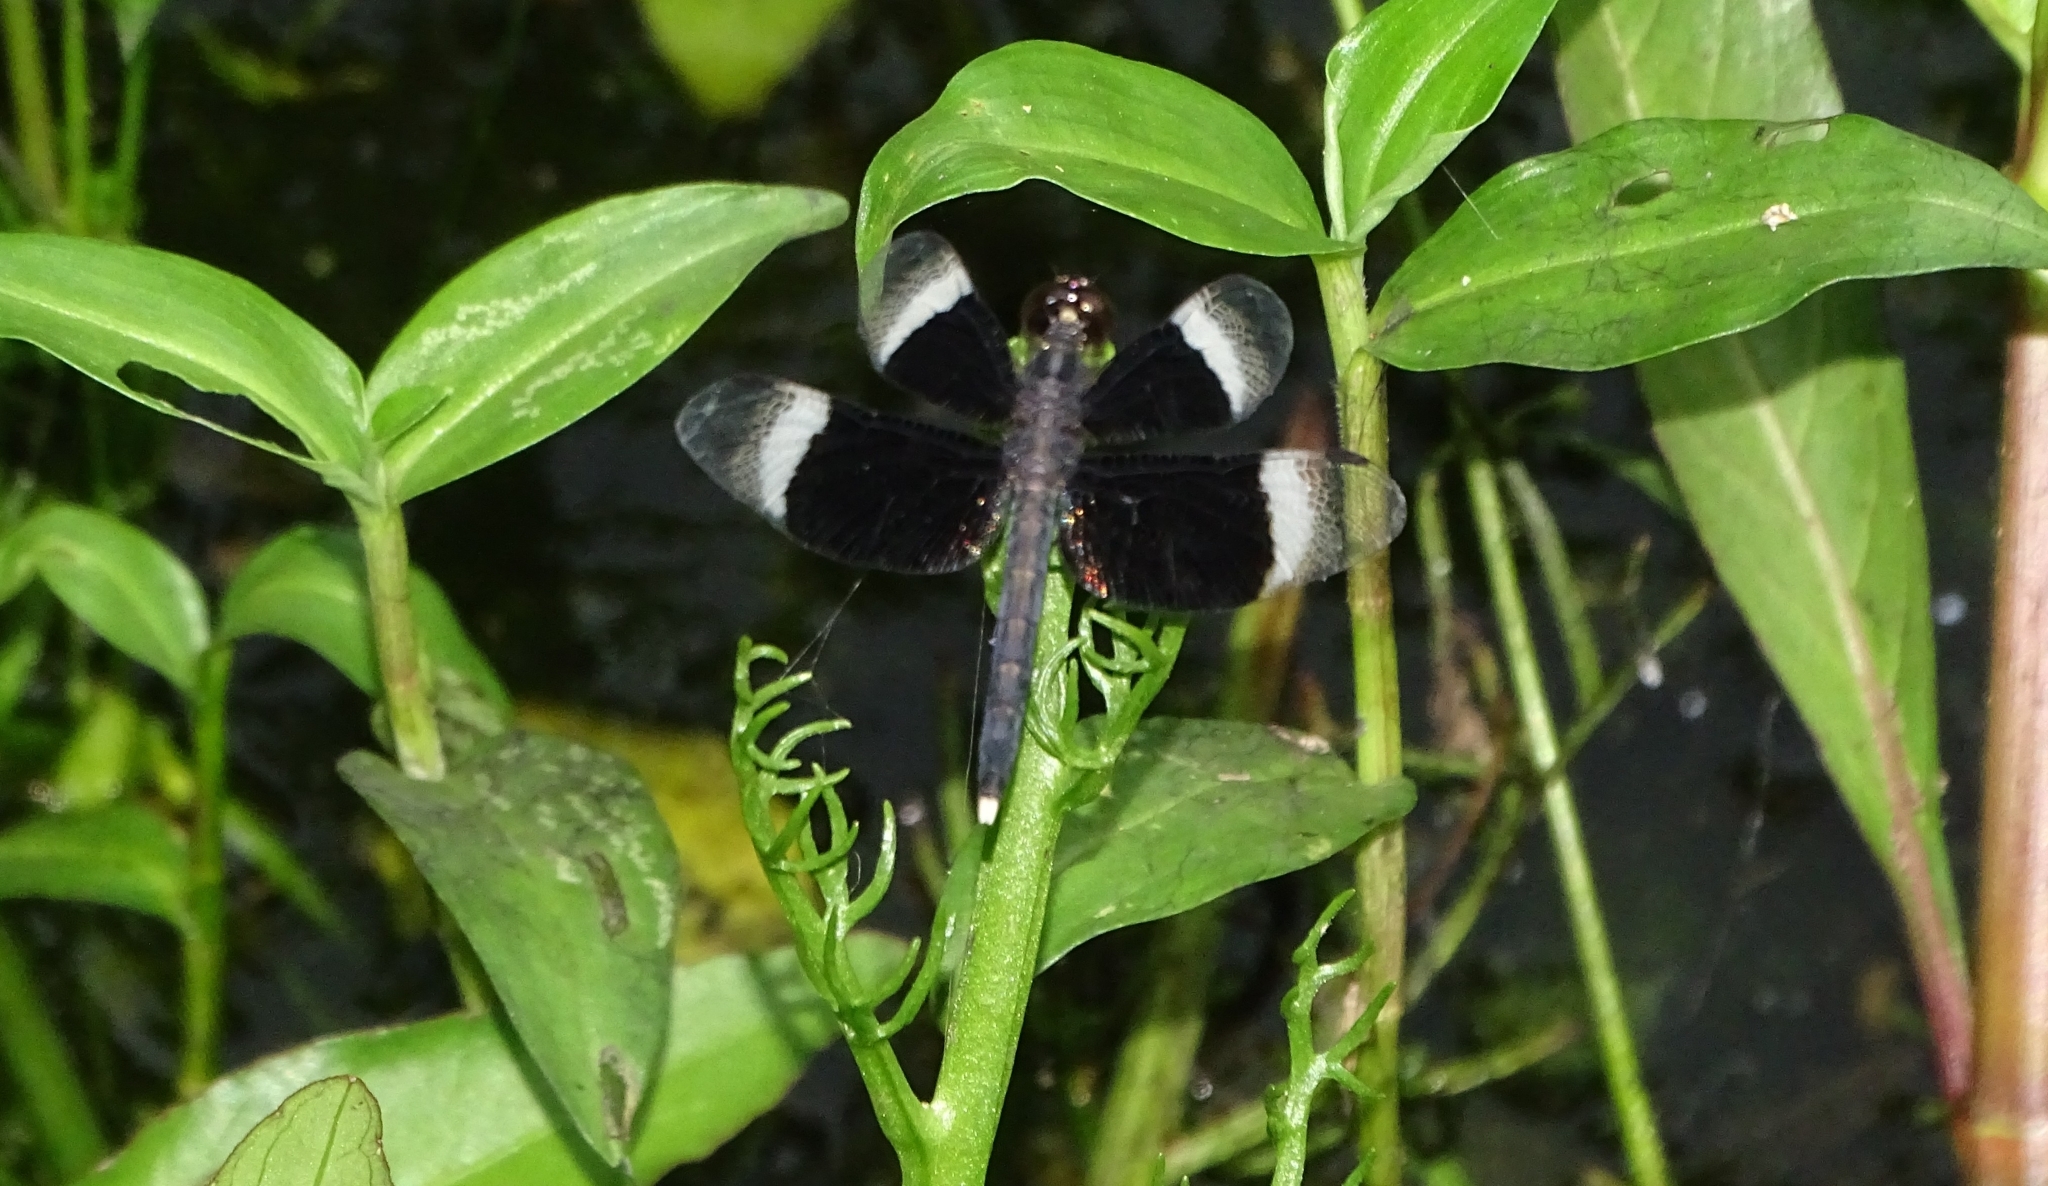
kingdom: Animalia
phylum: Arthropoda
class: Insecta
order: Odonata
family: Libellulidae
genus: Neurothemis
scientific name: Neurothemis tullia
